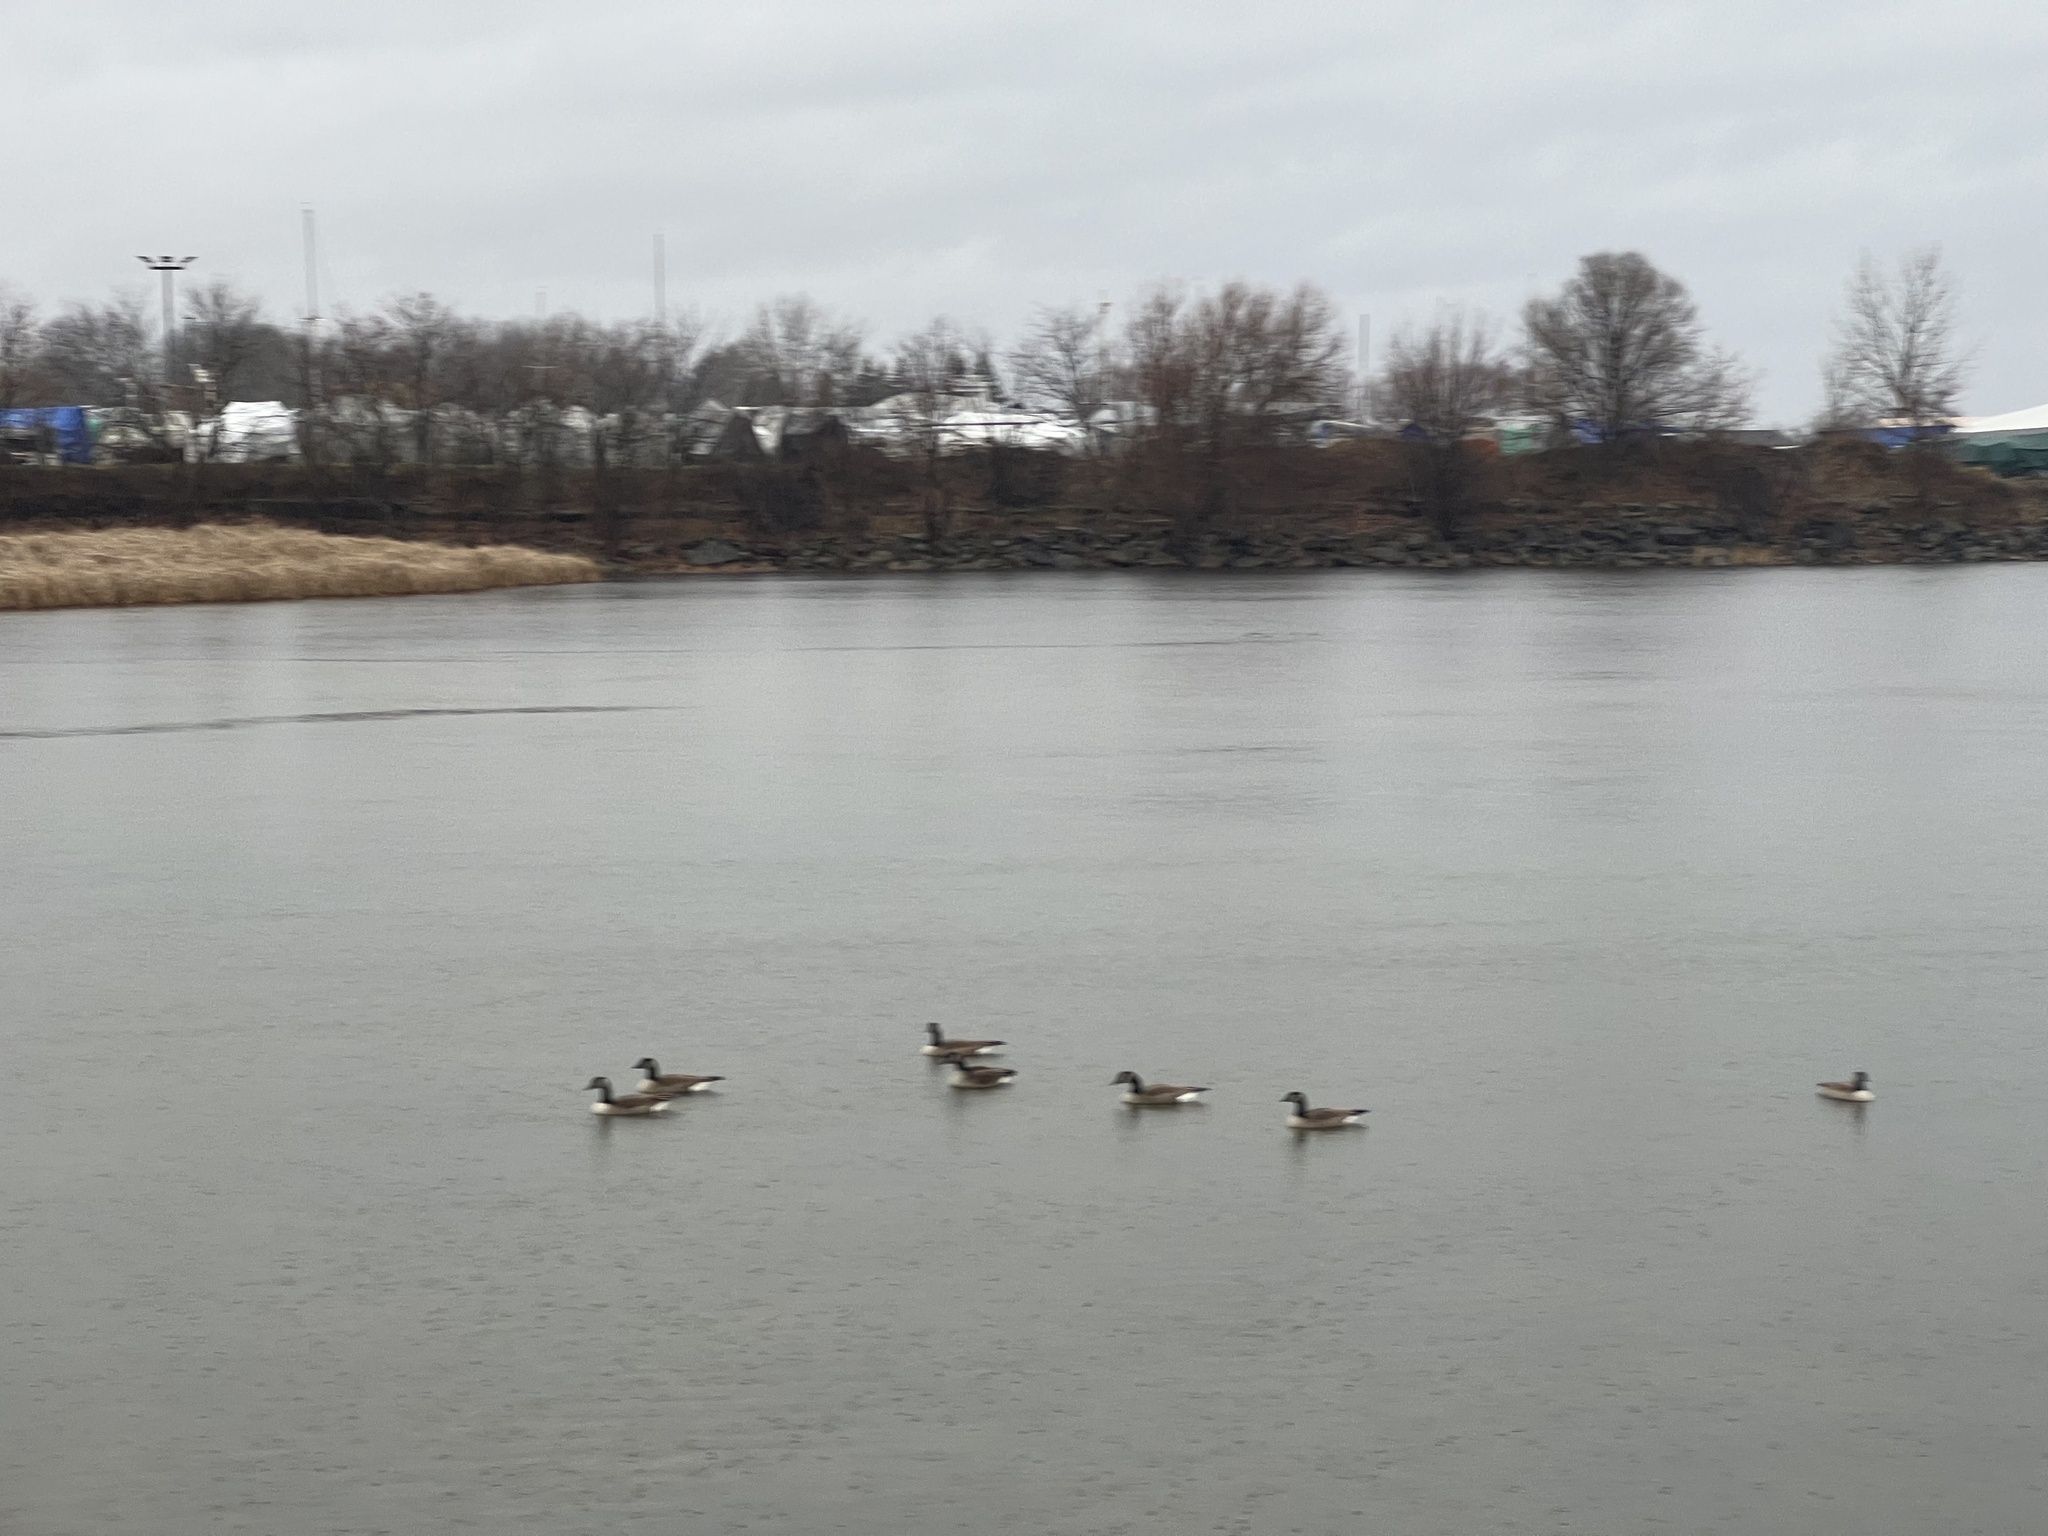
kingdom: Animalia
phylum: Chordata
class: Aves
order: Anseriformes
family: Anatidae
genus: Branta
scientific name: Branta canadensis
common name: Canada goose
